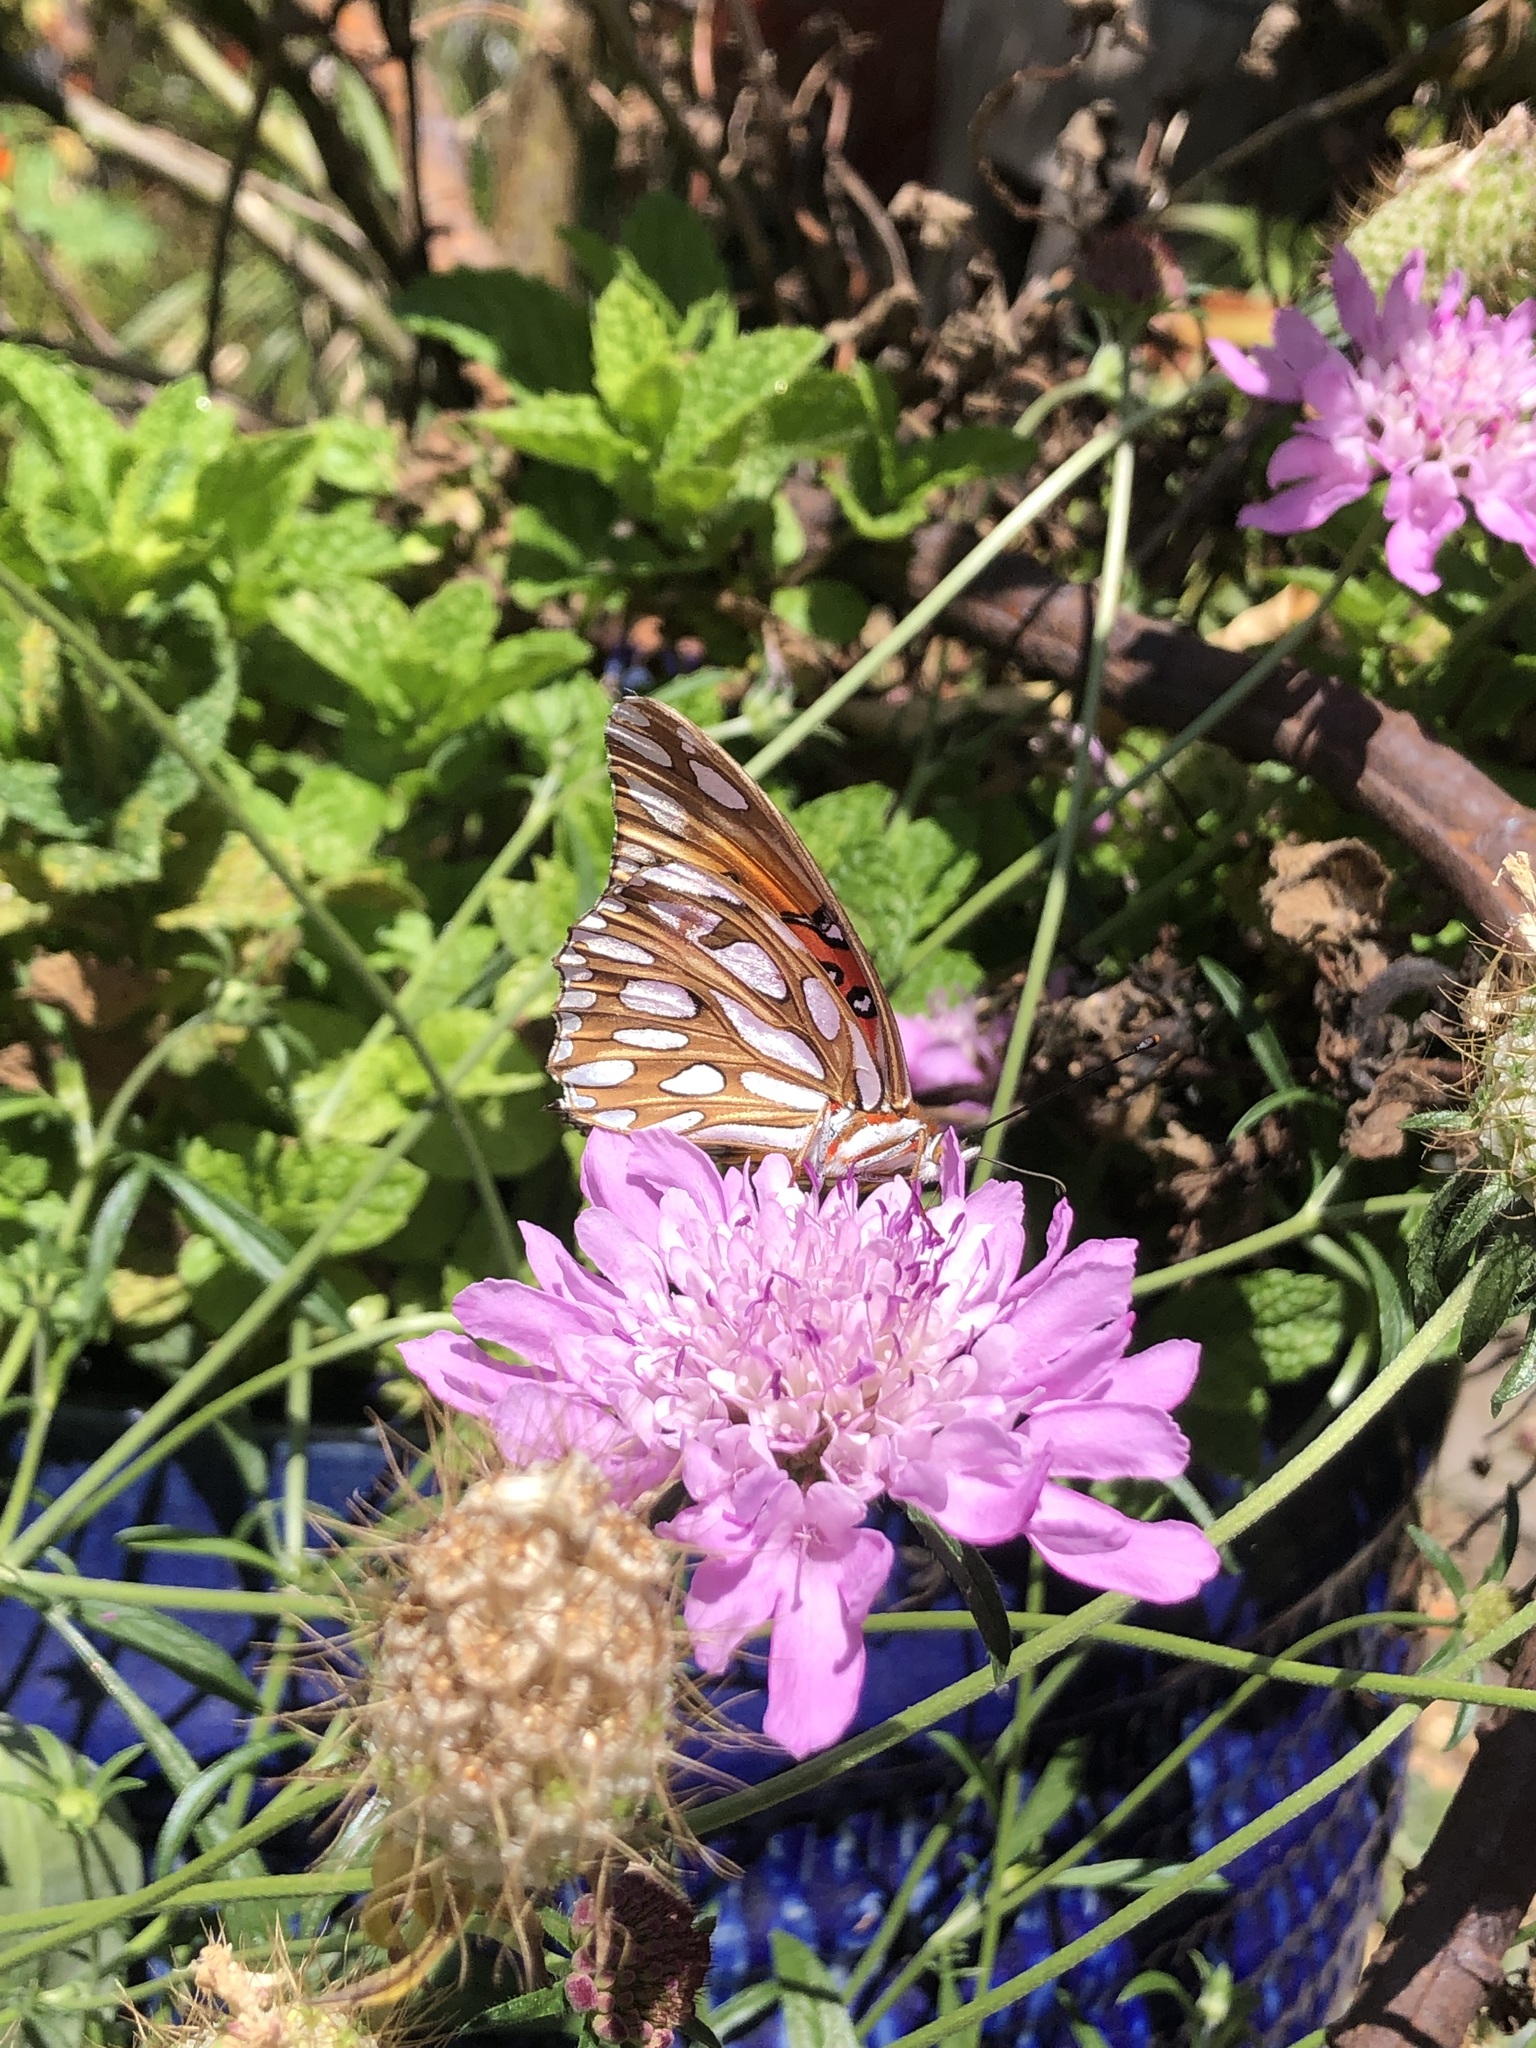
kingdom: Animalia
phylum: Arthropoda
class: Insecta
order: Lepidoptera
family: Nymphalidae
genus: Dione
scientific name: Dione vanillae
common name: Gulf fritillary
